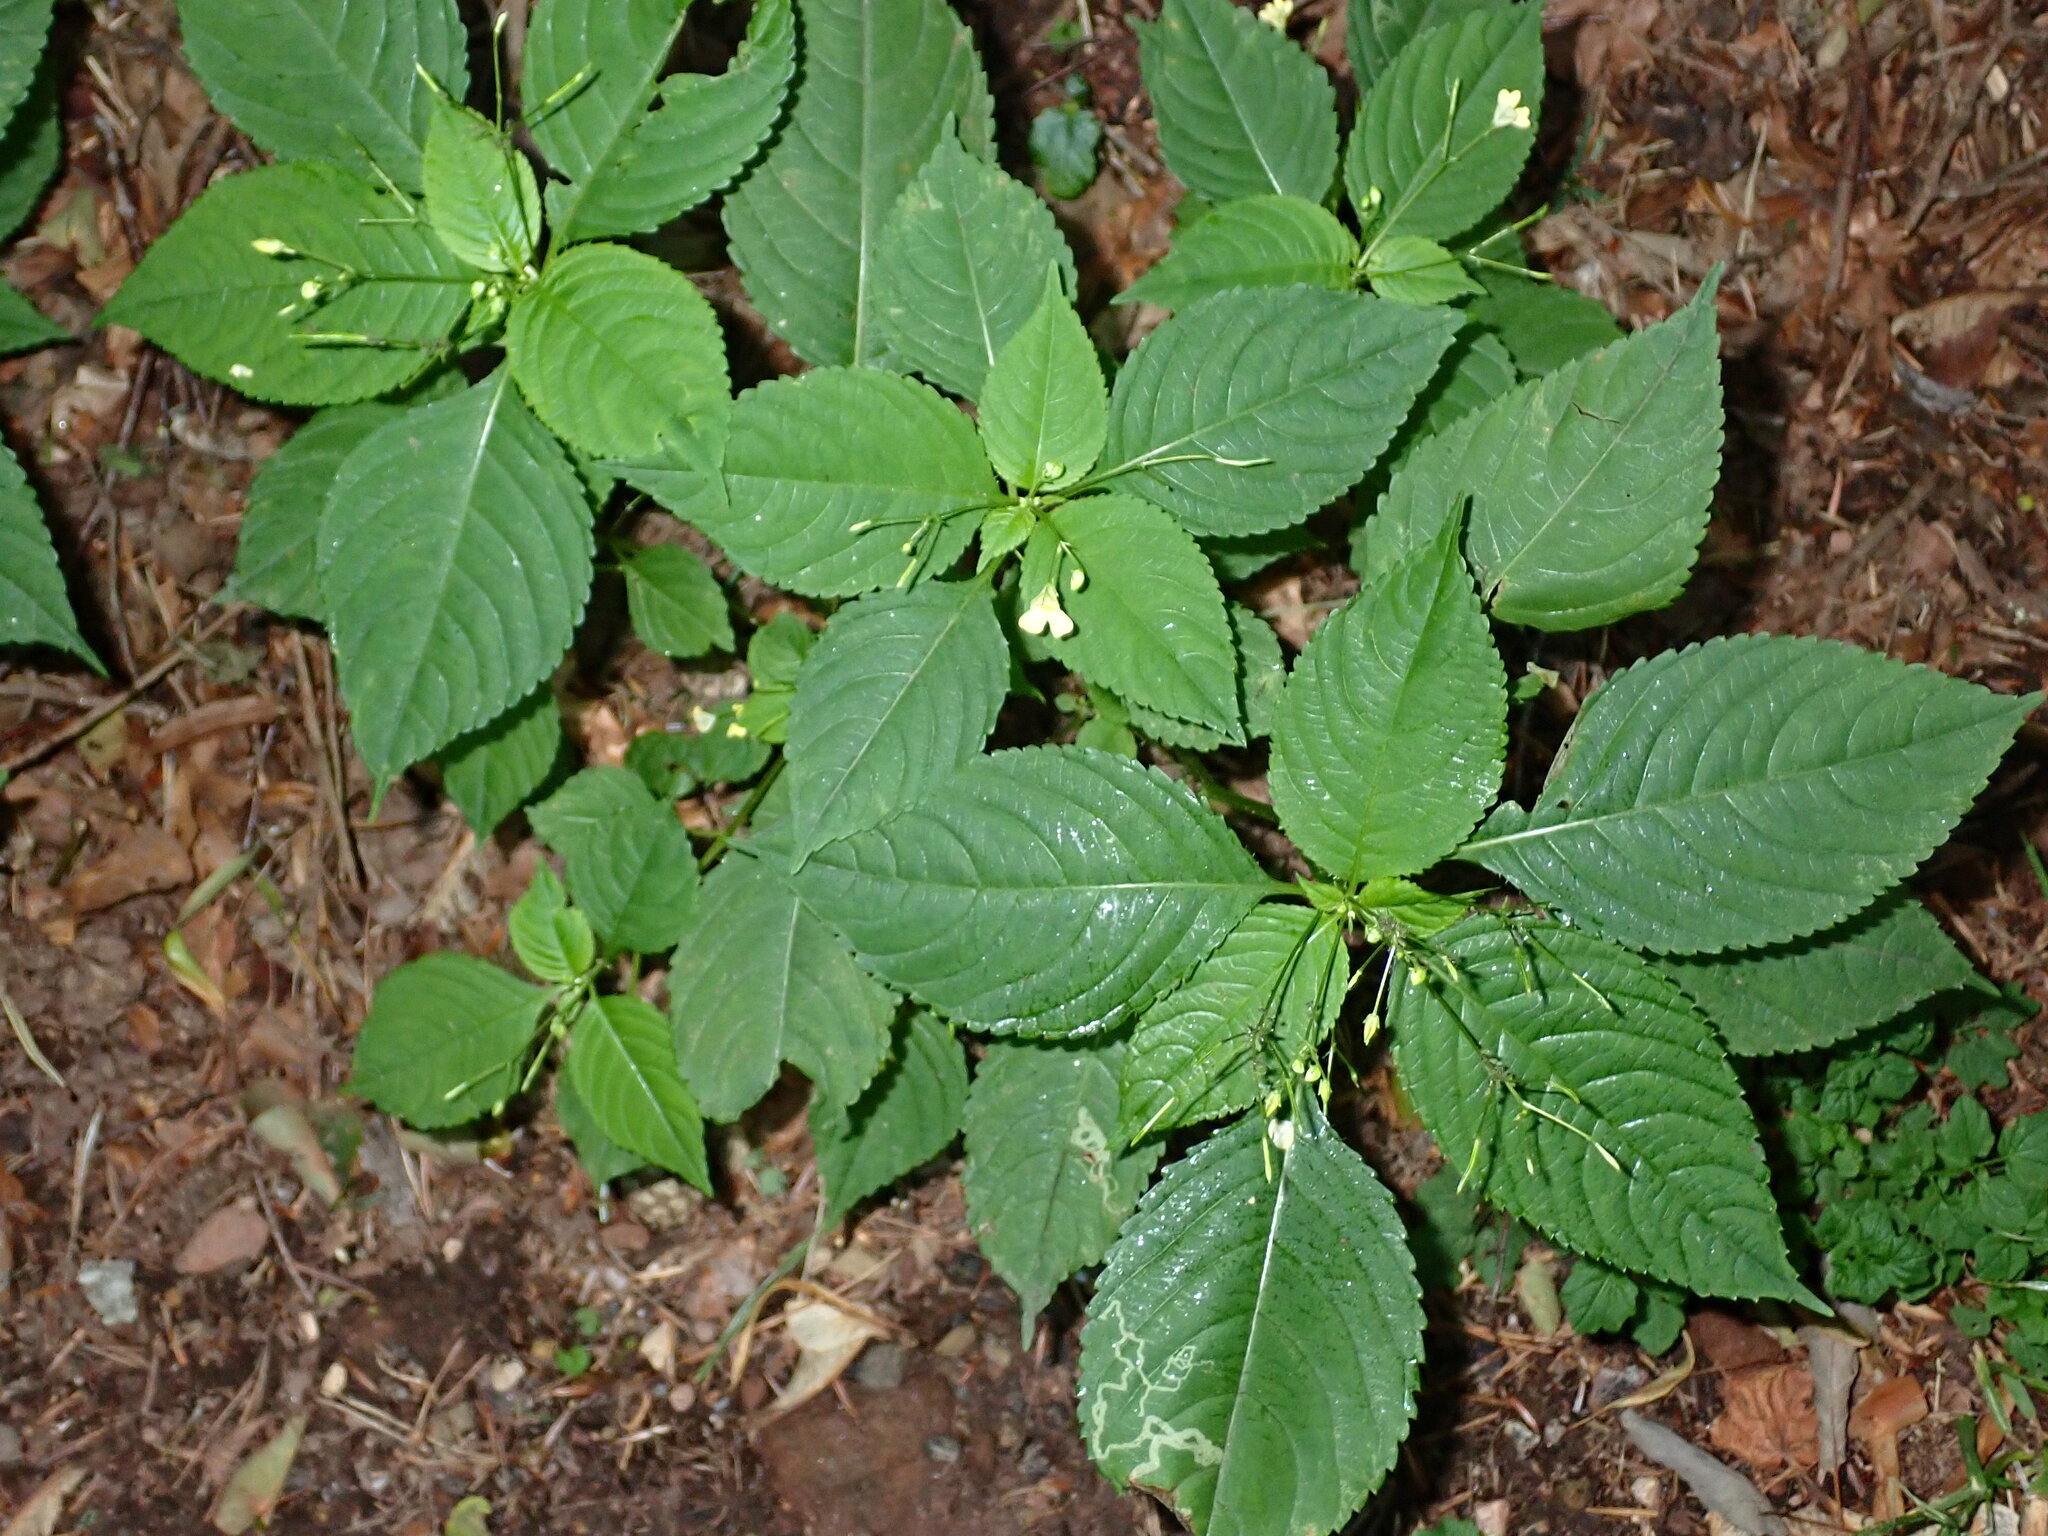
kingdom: Plantae
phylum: Tracheophyta
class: Magnoliopsida
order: Ericales
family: Balsaminaceae
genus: Impatiens
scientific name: Impatiens parviflora
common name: Small balsam
